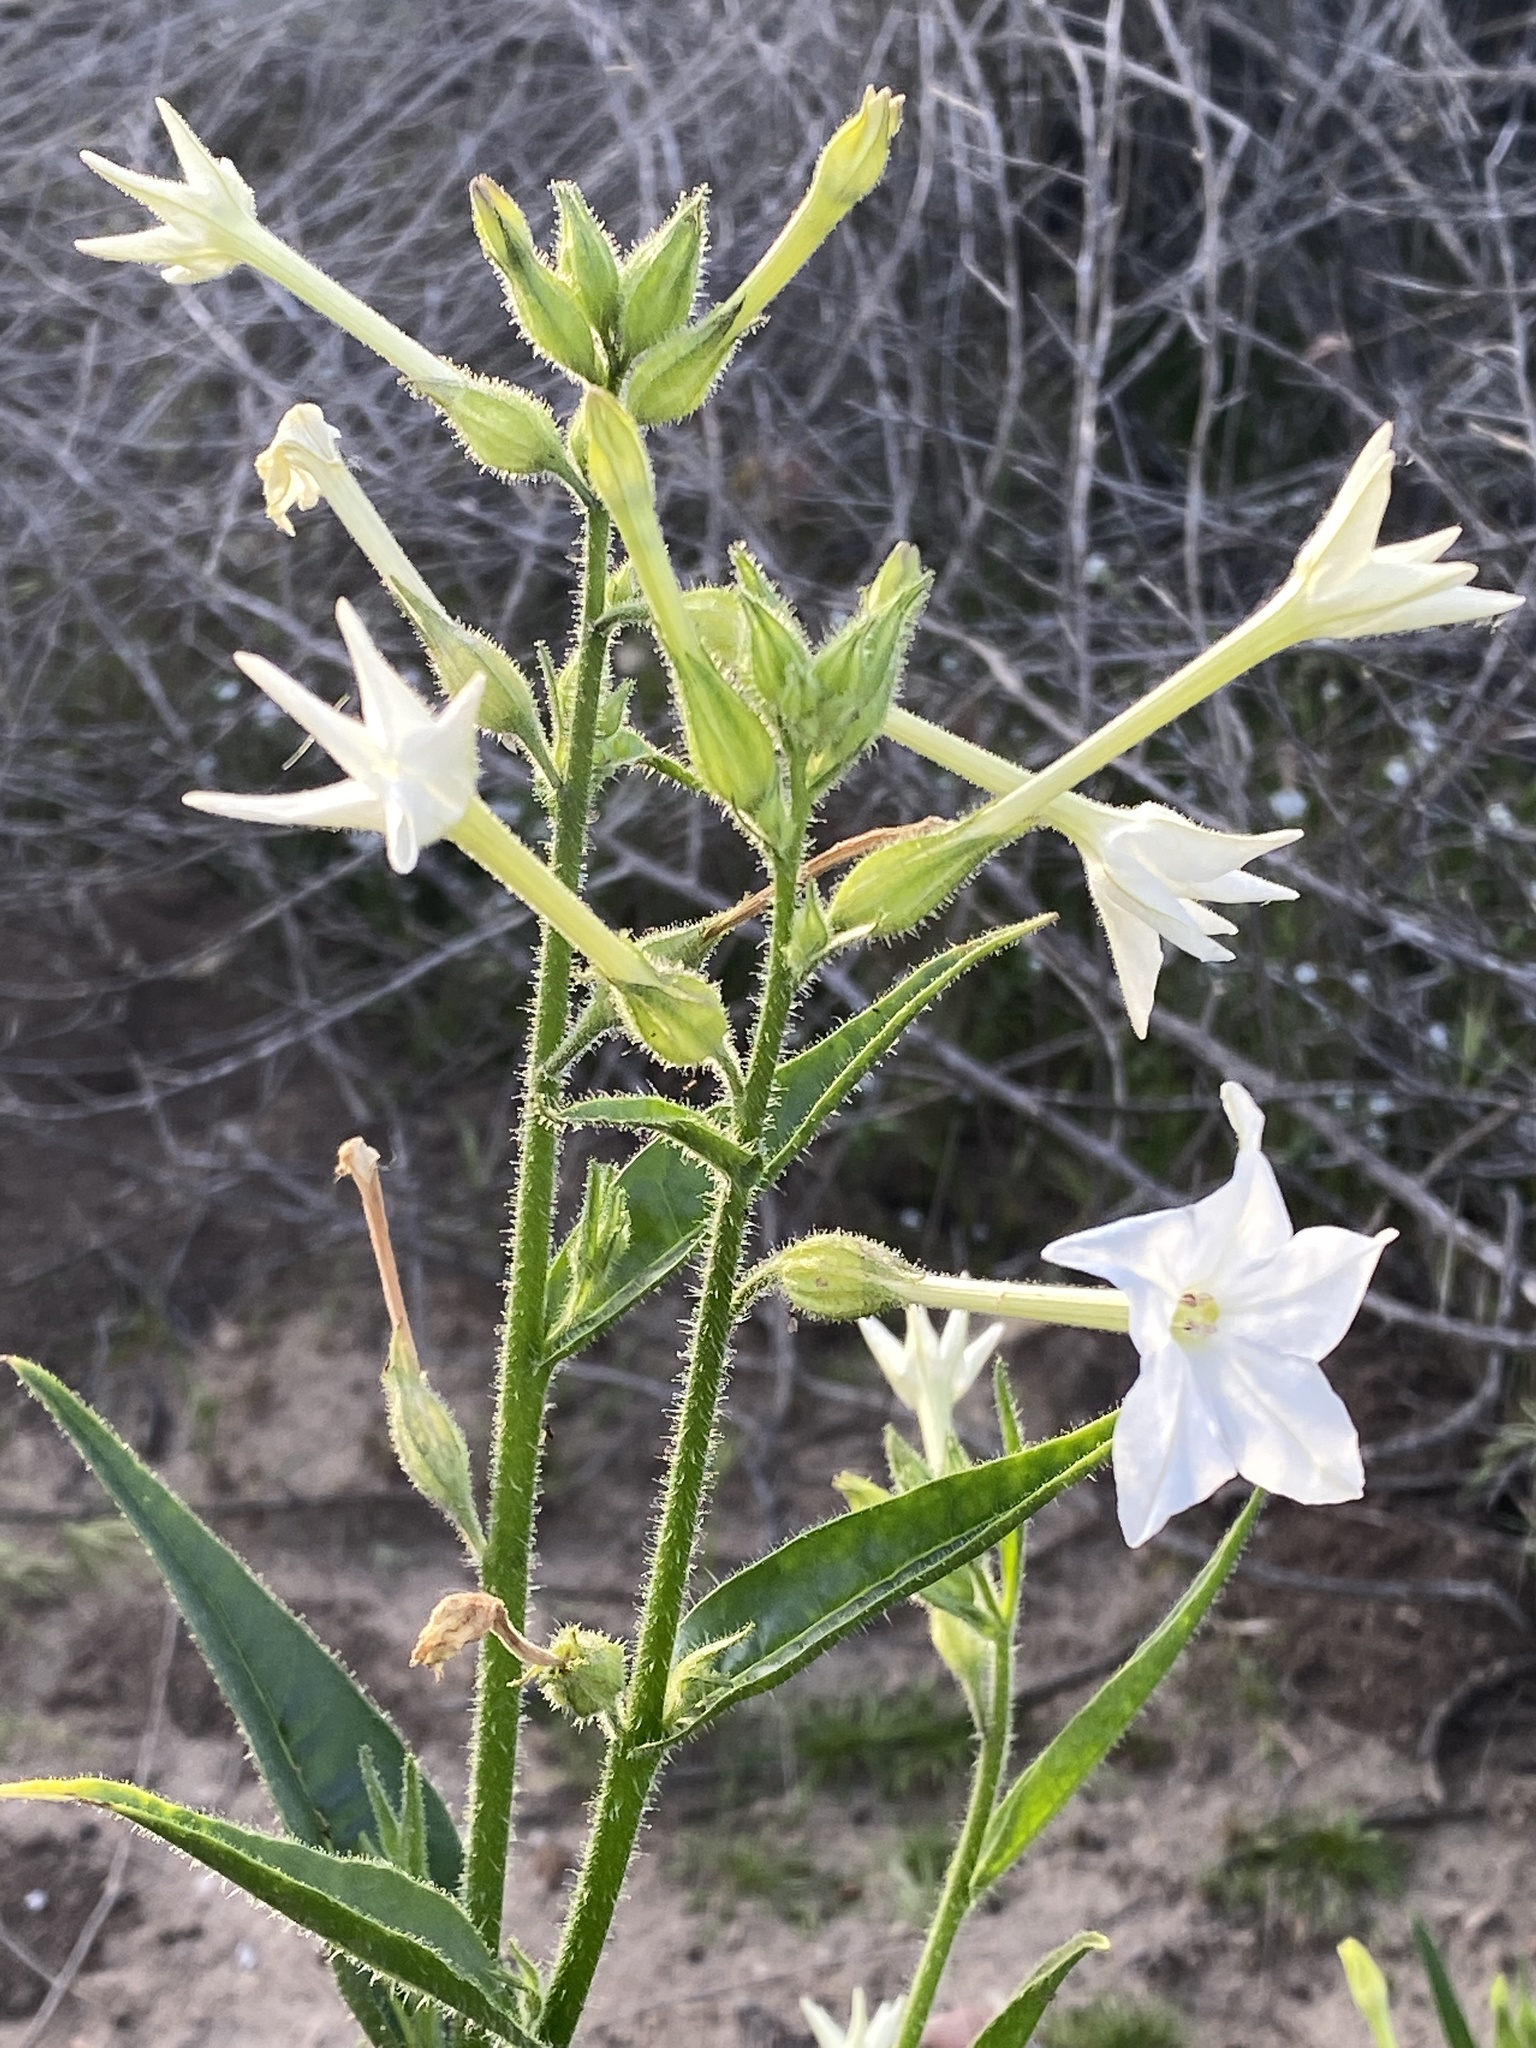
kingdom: Plantae
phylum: Tracheophyta
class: Magnoliopsida
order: Solanales
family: Solanaceae
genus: Nicotiana
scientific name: Nicotiana quadrivalvis
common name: Indian tobacco
